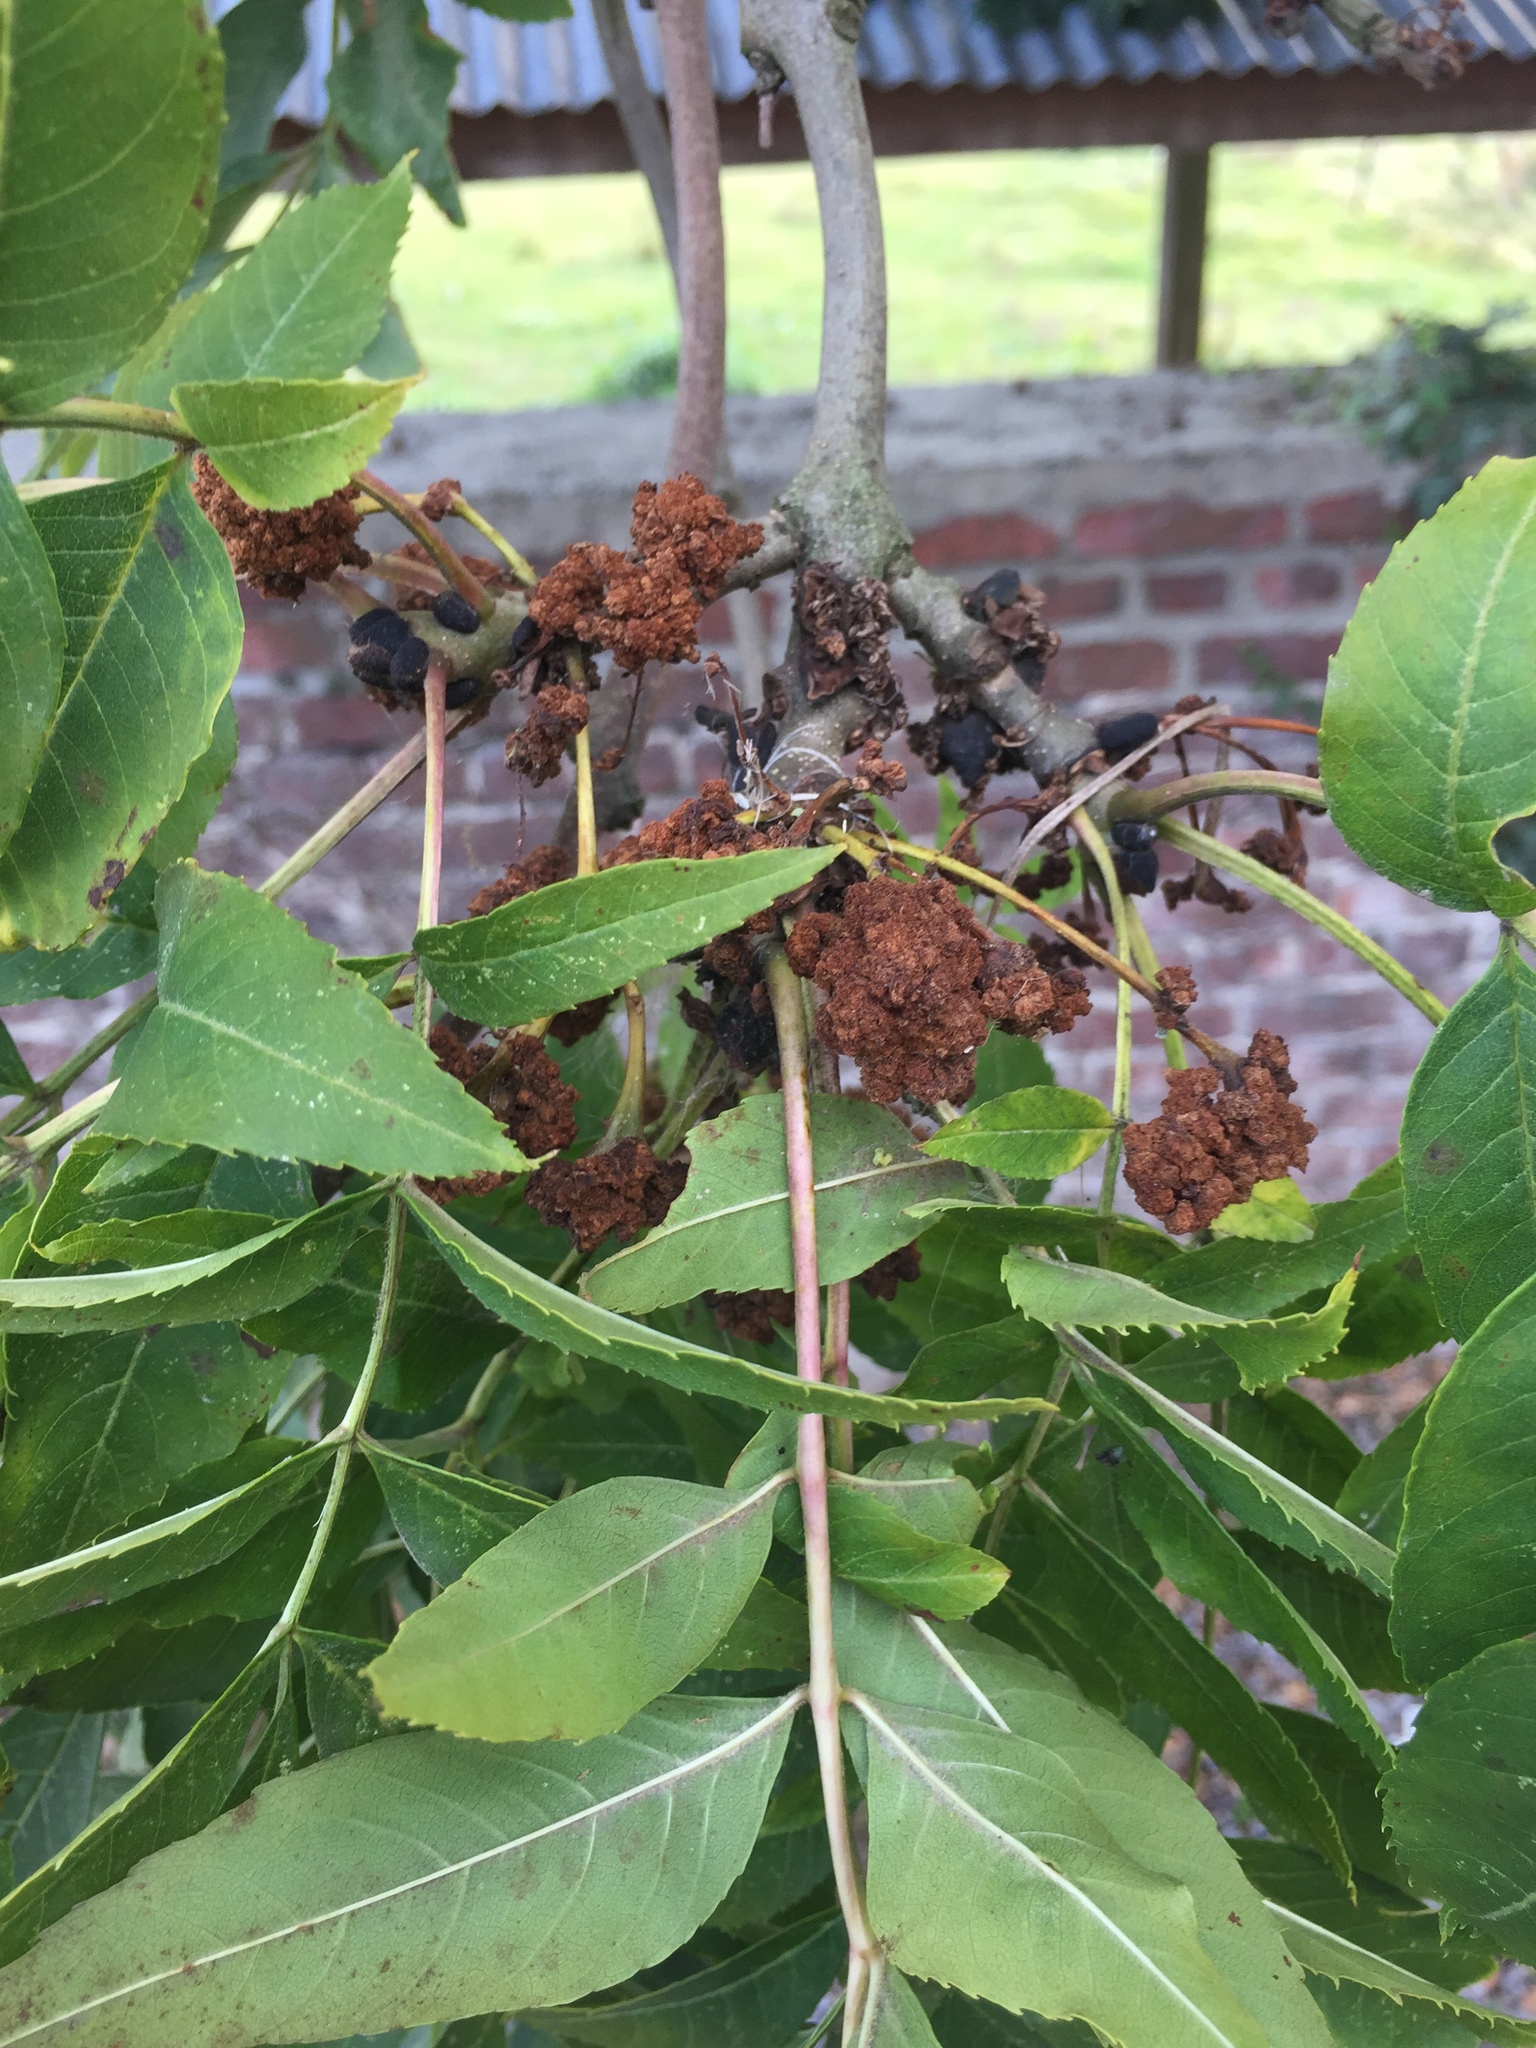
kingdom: Animalia
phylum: Arthropoda
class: Arachnida
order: Trombidiformes
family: Eriophyidae
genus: Aceria
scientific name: Aceria fraxinivora
